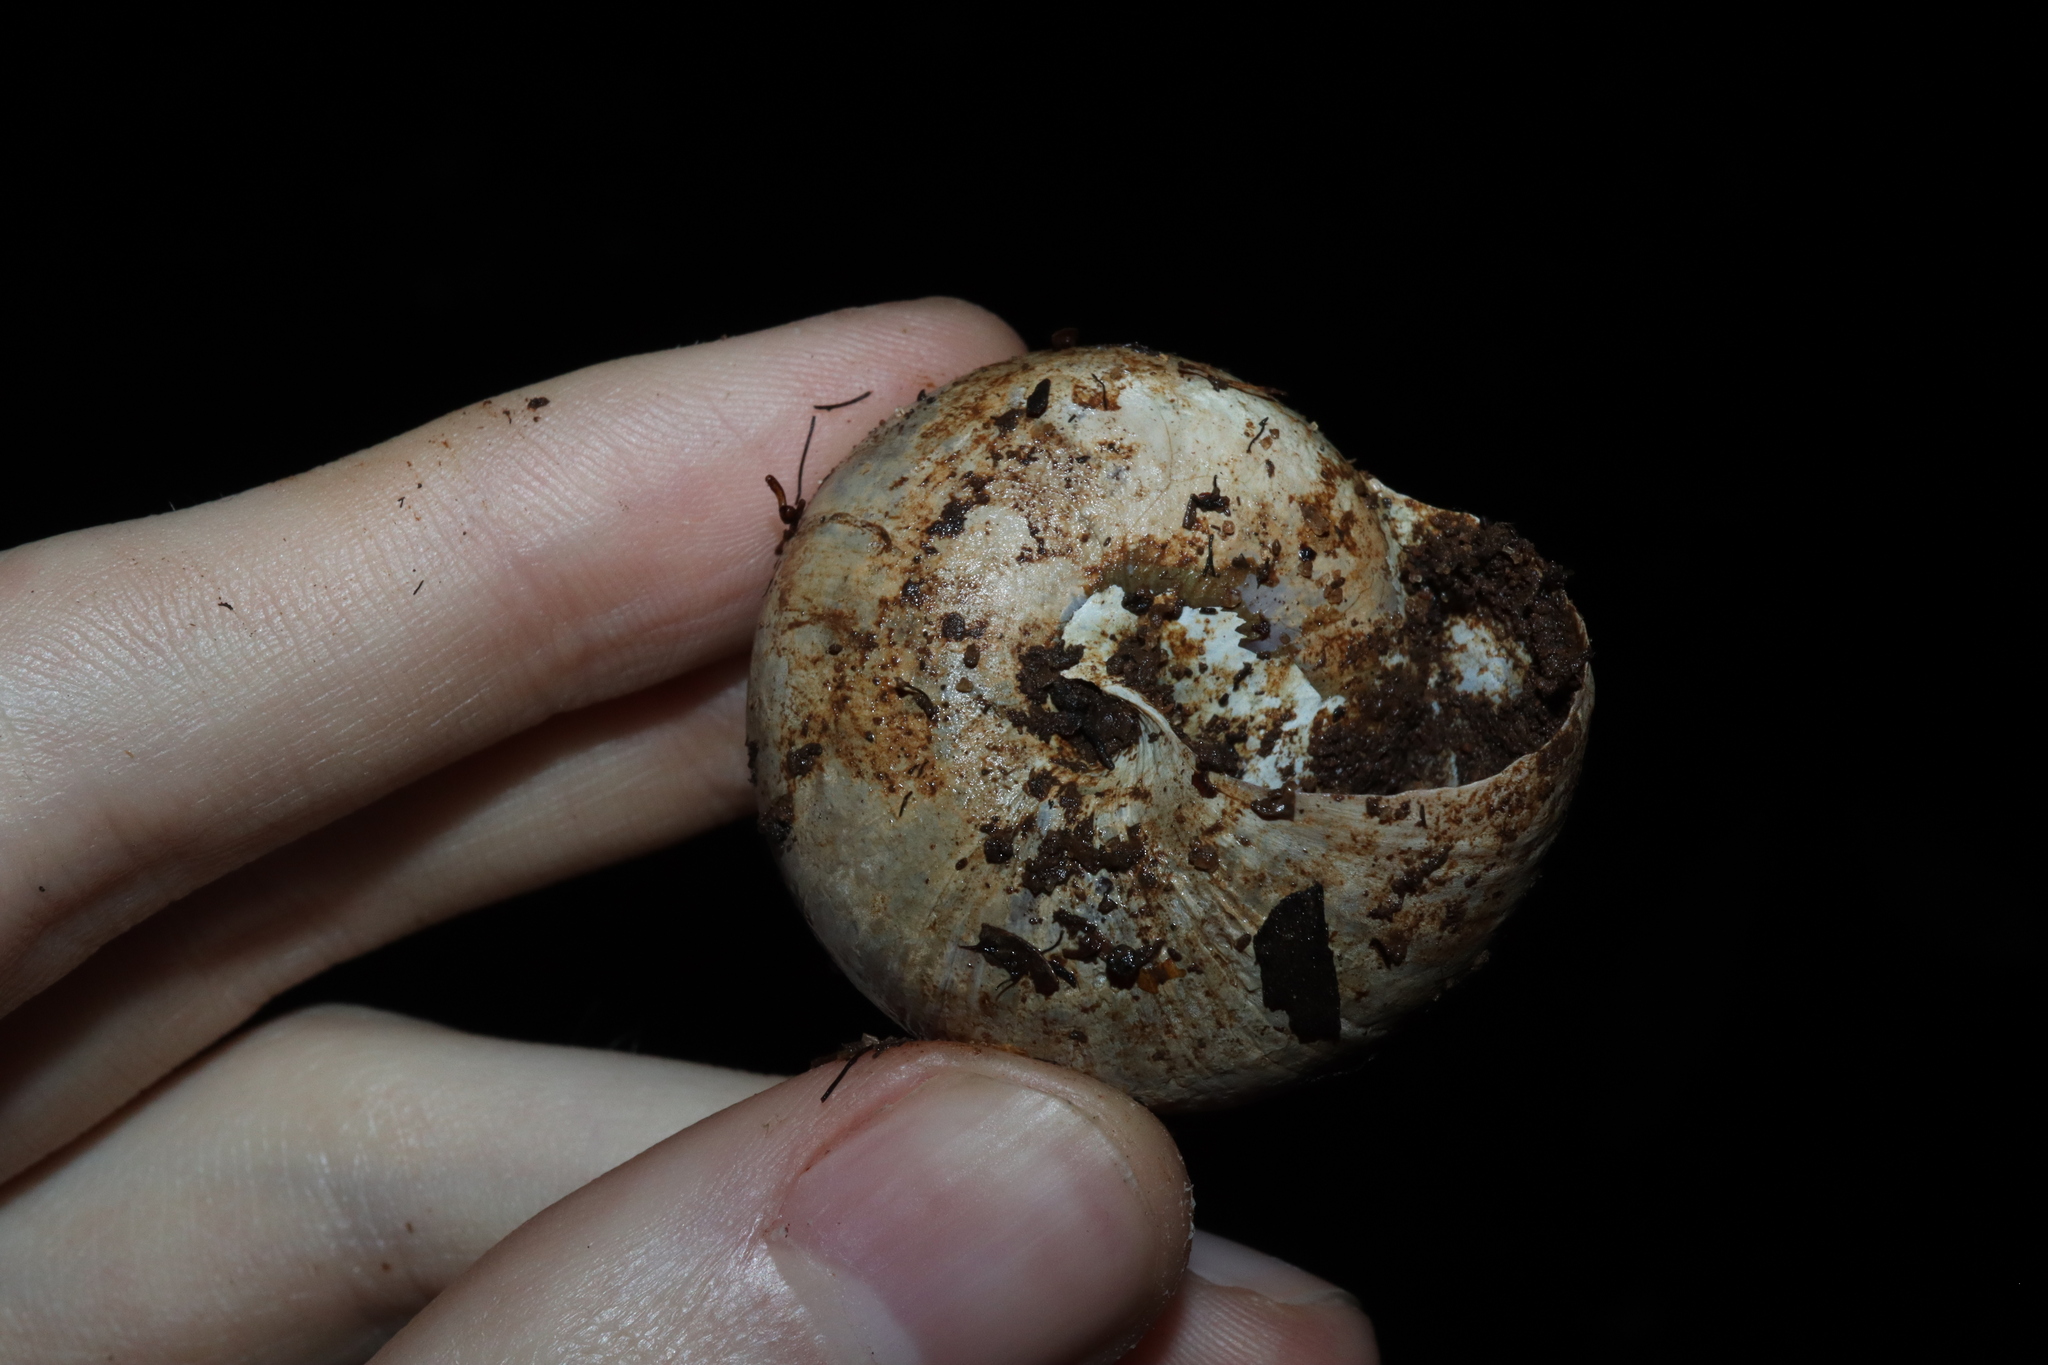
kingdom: Animalia
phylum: Mollusca
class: Gastropoda
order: Stylommatophora
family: Camaenidae
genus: Gnarosophia
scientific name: Gnarosophia bellendenkerensis
